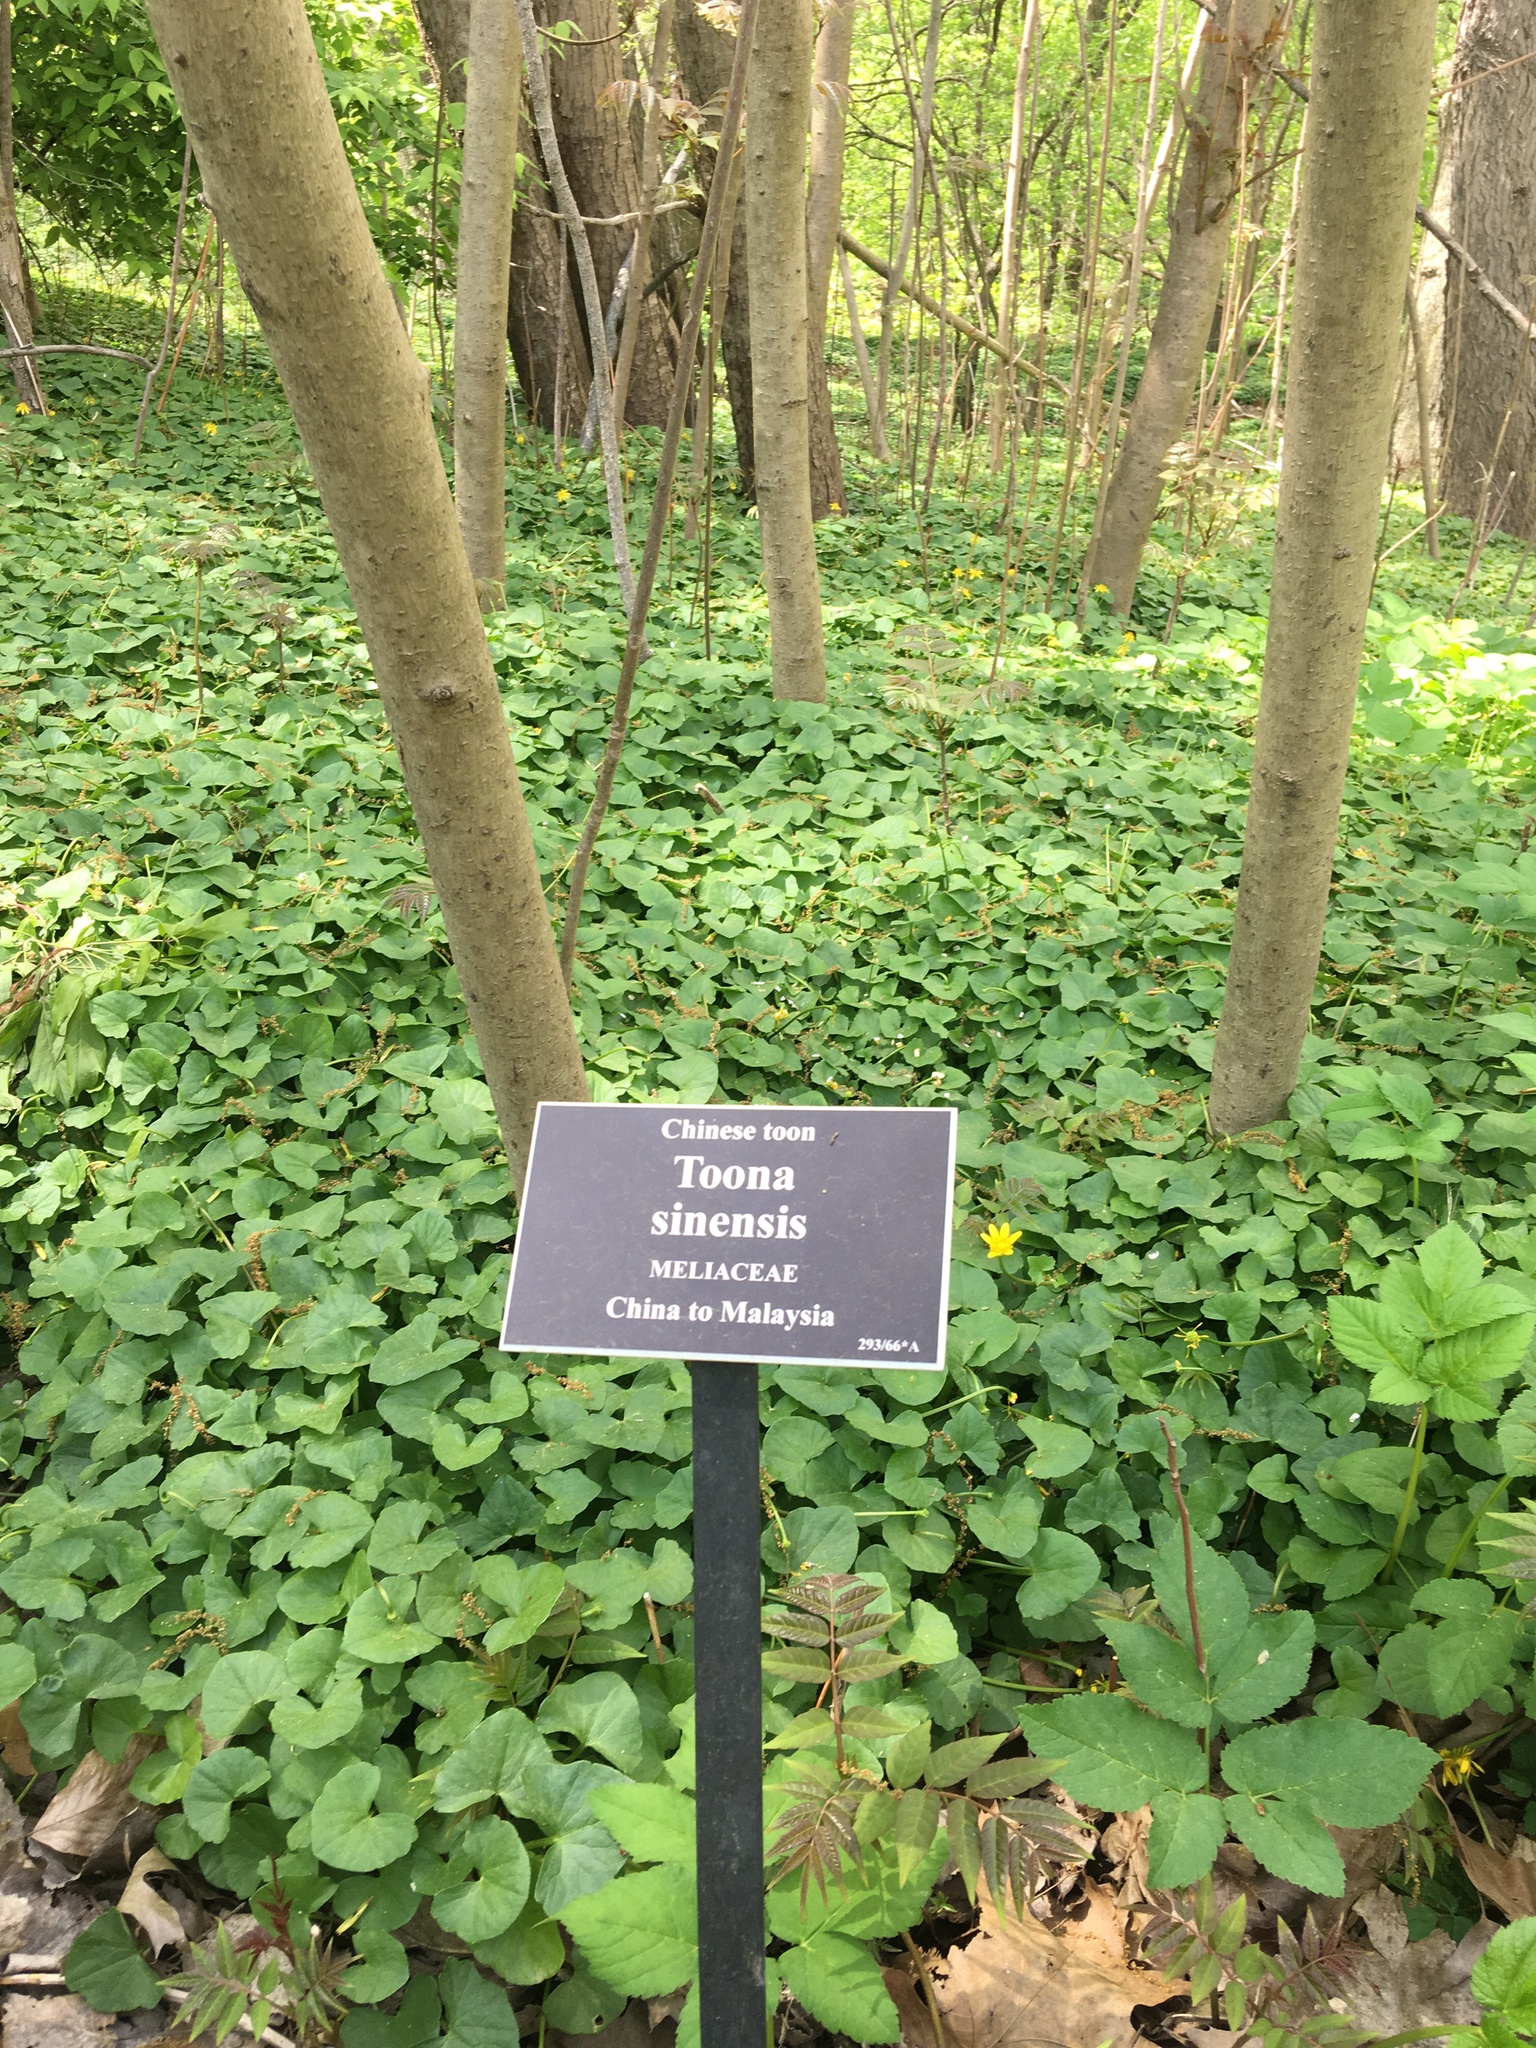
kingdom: Plantae
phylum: Tracheophyta
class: Magnoliopsida
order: Sapindales
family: Meliaceae
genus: Toona
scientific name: Toona sinensis
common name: Red toon
